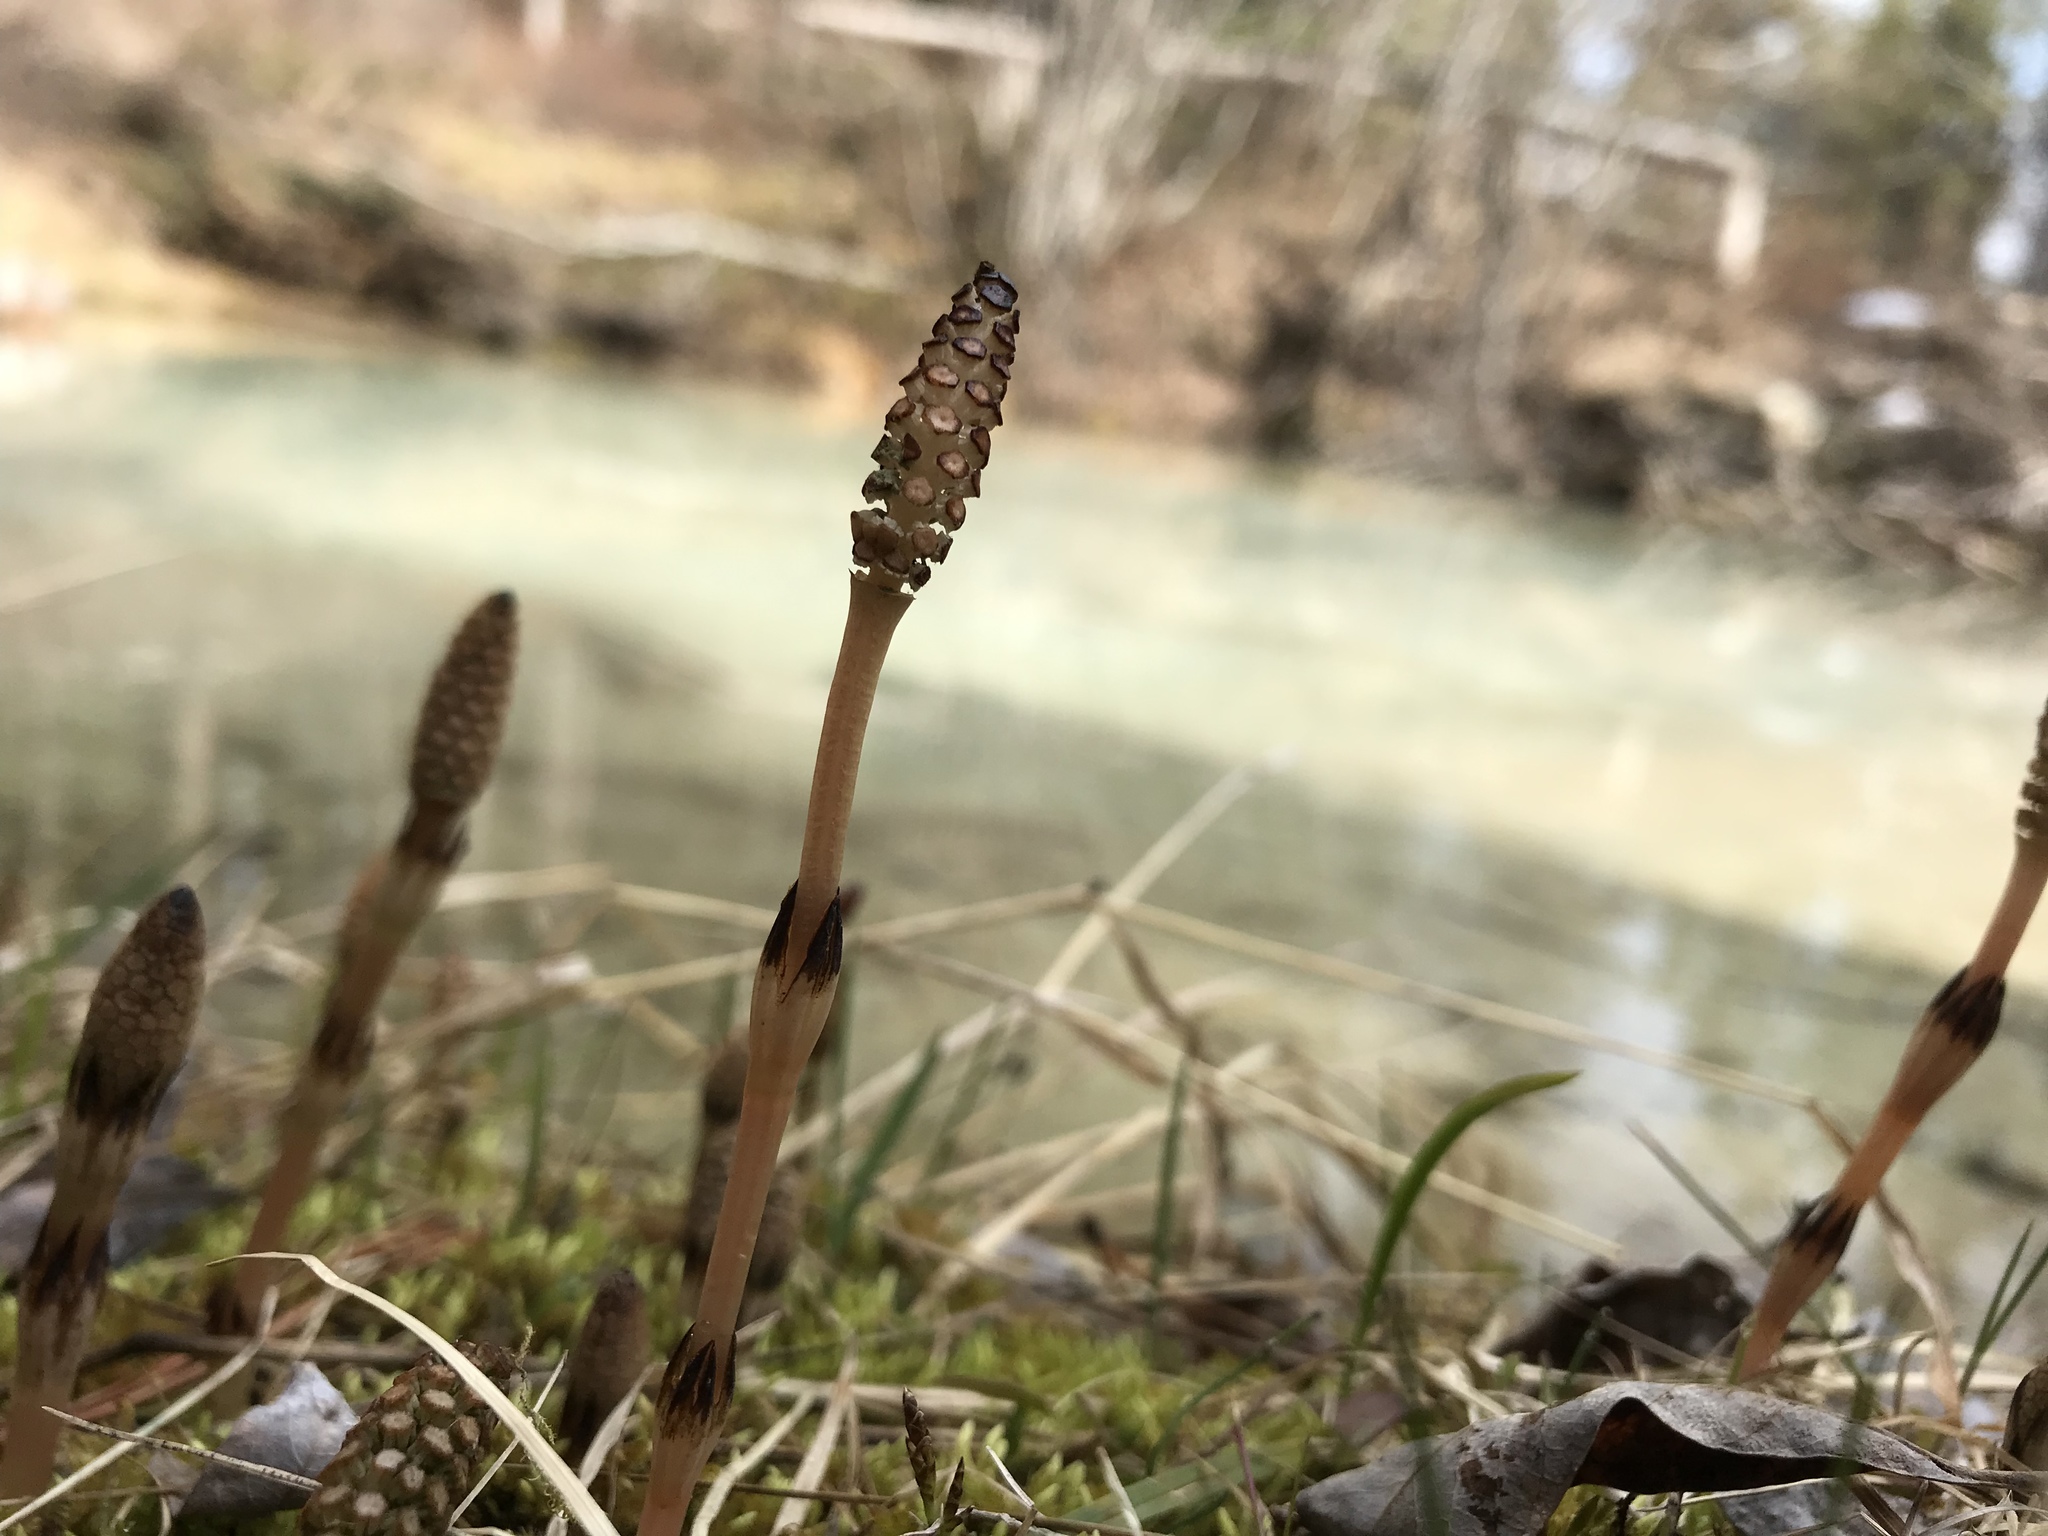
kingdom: Plantae
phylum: Tracheophyta
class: Polypodiopsida
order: Equisetales
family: Equisetaceae
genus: Equisetum
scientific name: Equisetum arvense
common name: Field horsetail
